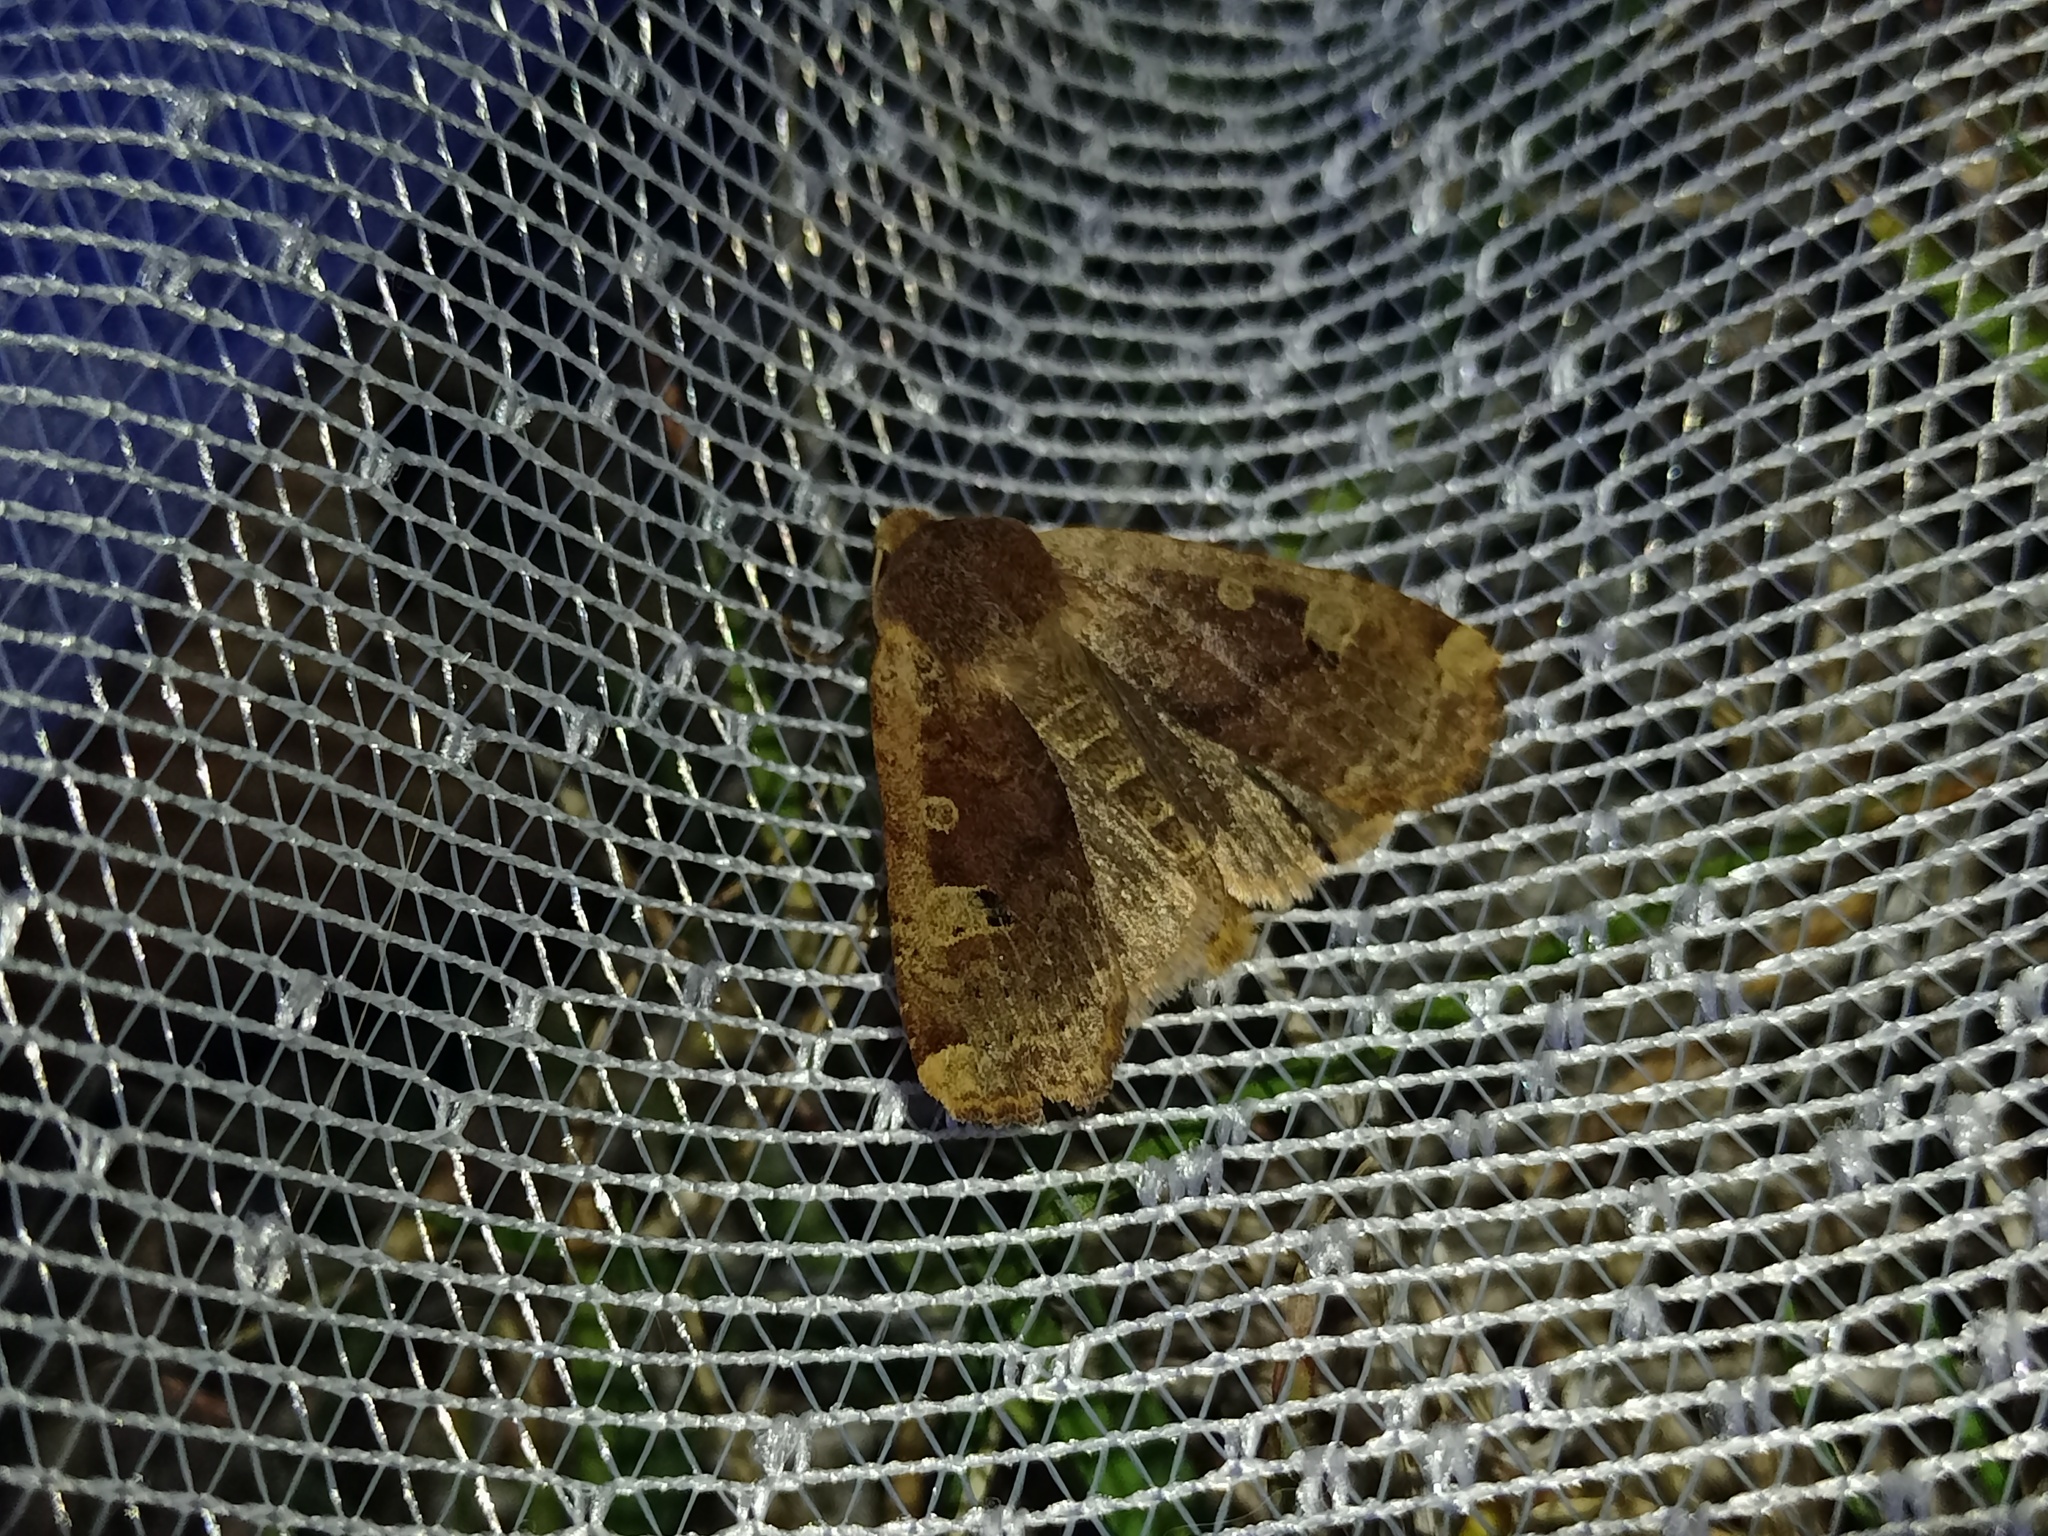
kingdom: Animalia
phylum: Arthropoda
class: Insecta
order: Lepidoptera
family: Noctuidae
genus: Conistra
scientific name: Conistra erythrocephala
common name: Red-headed chestnut
